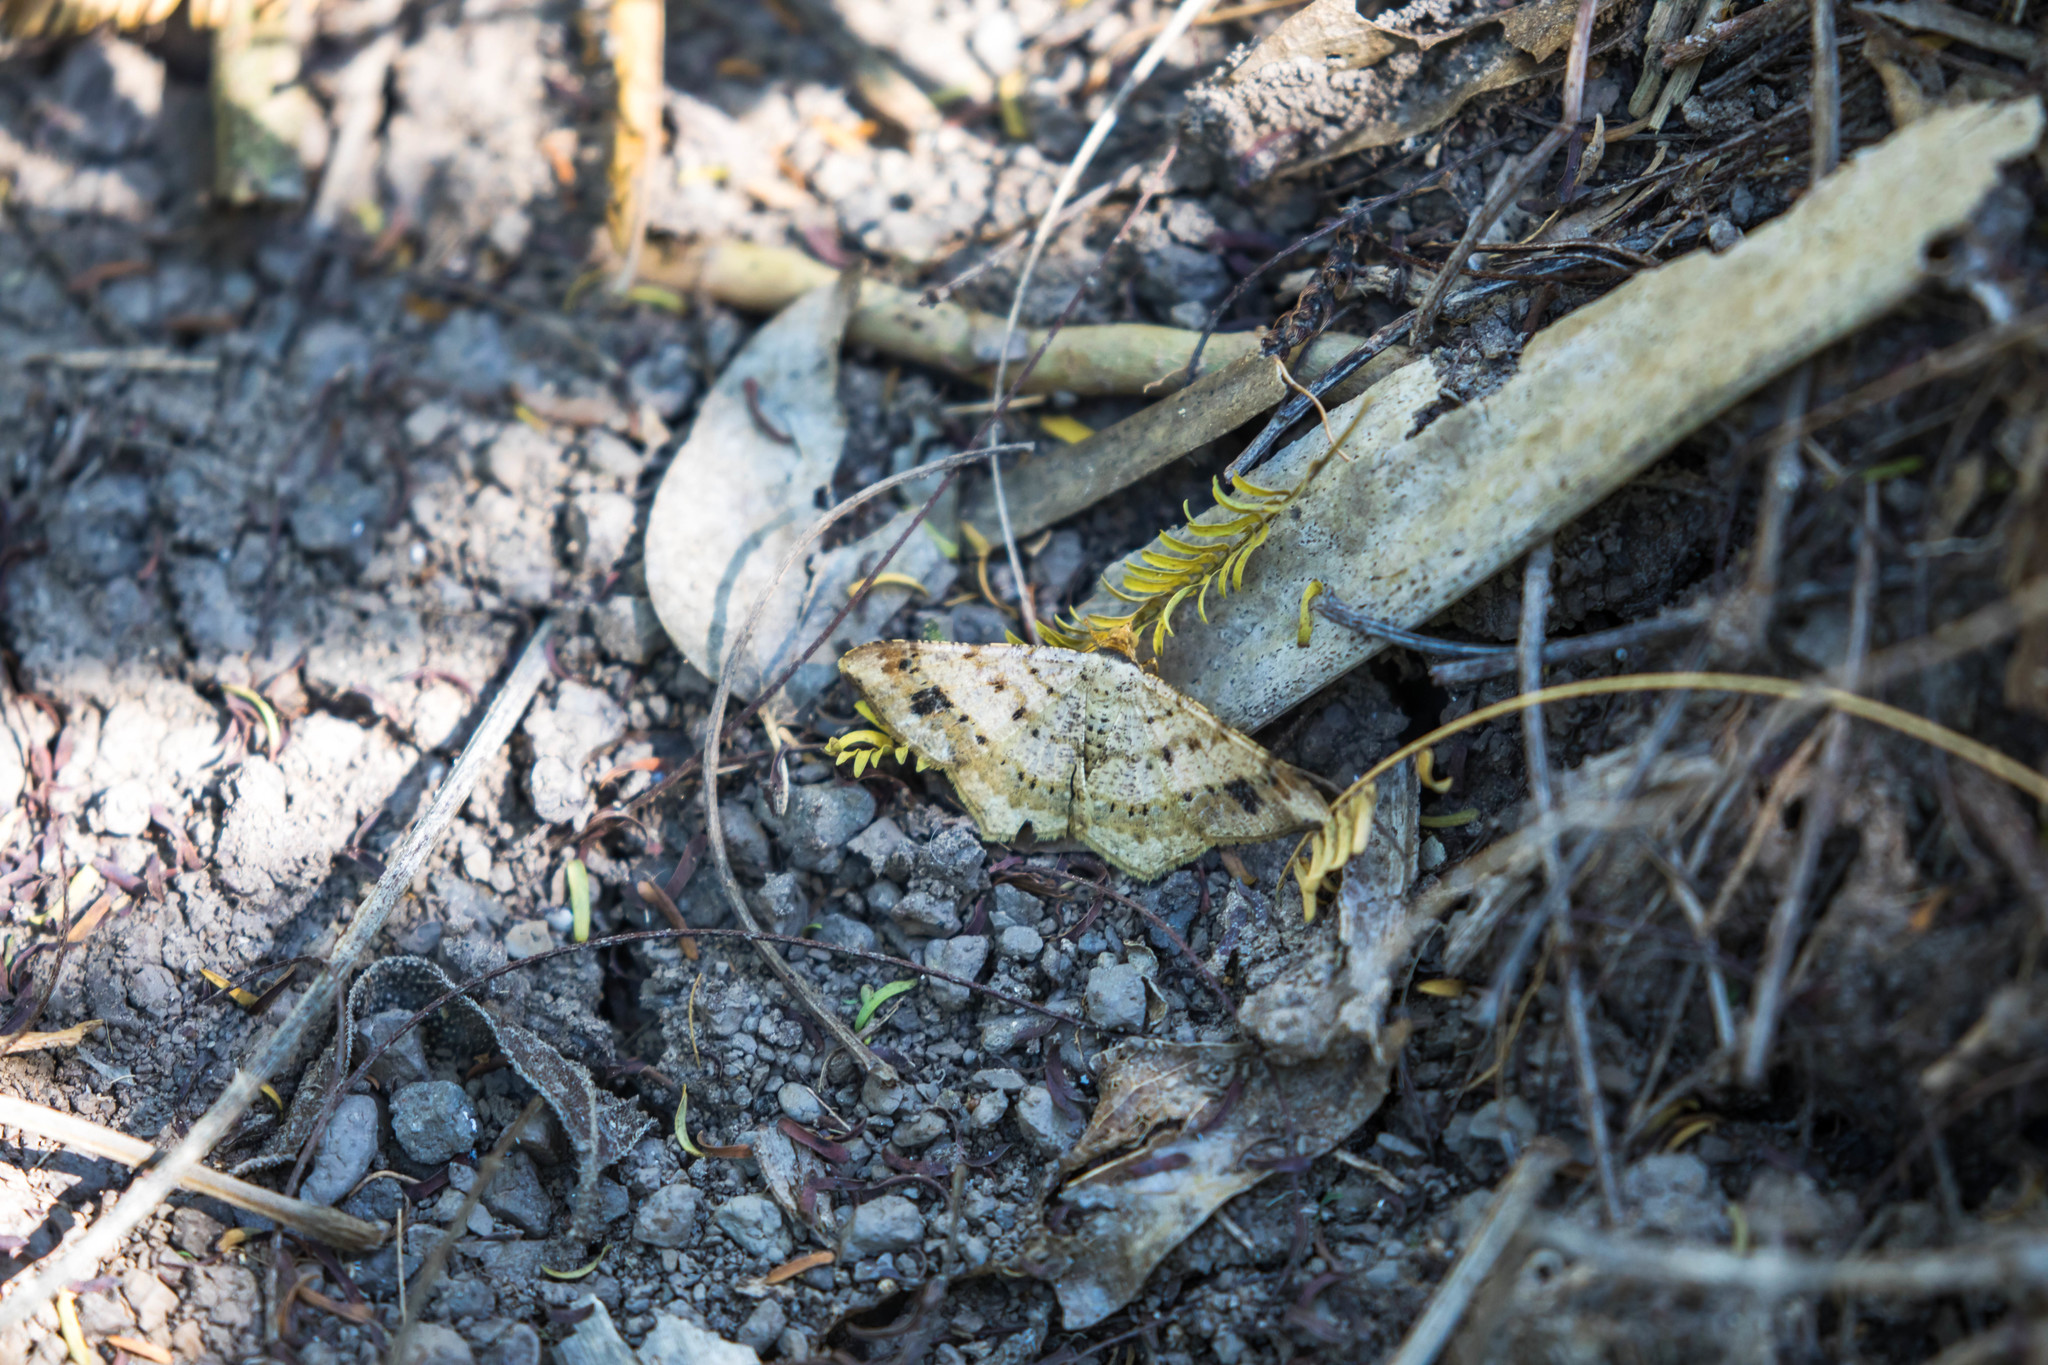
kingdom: Animalia
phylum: Arthropoda
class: Insecta
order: Lepidoptera
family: Geometridae
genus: Macaria
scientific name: Macaria abydata
